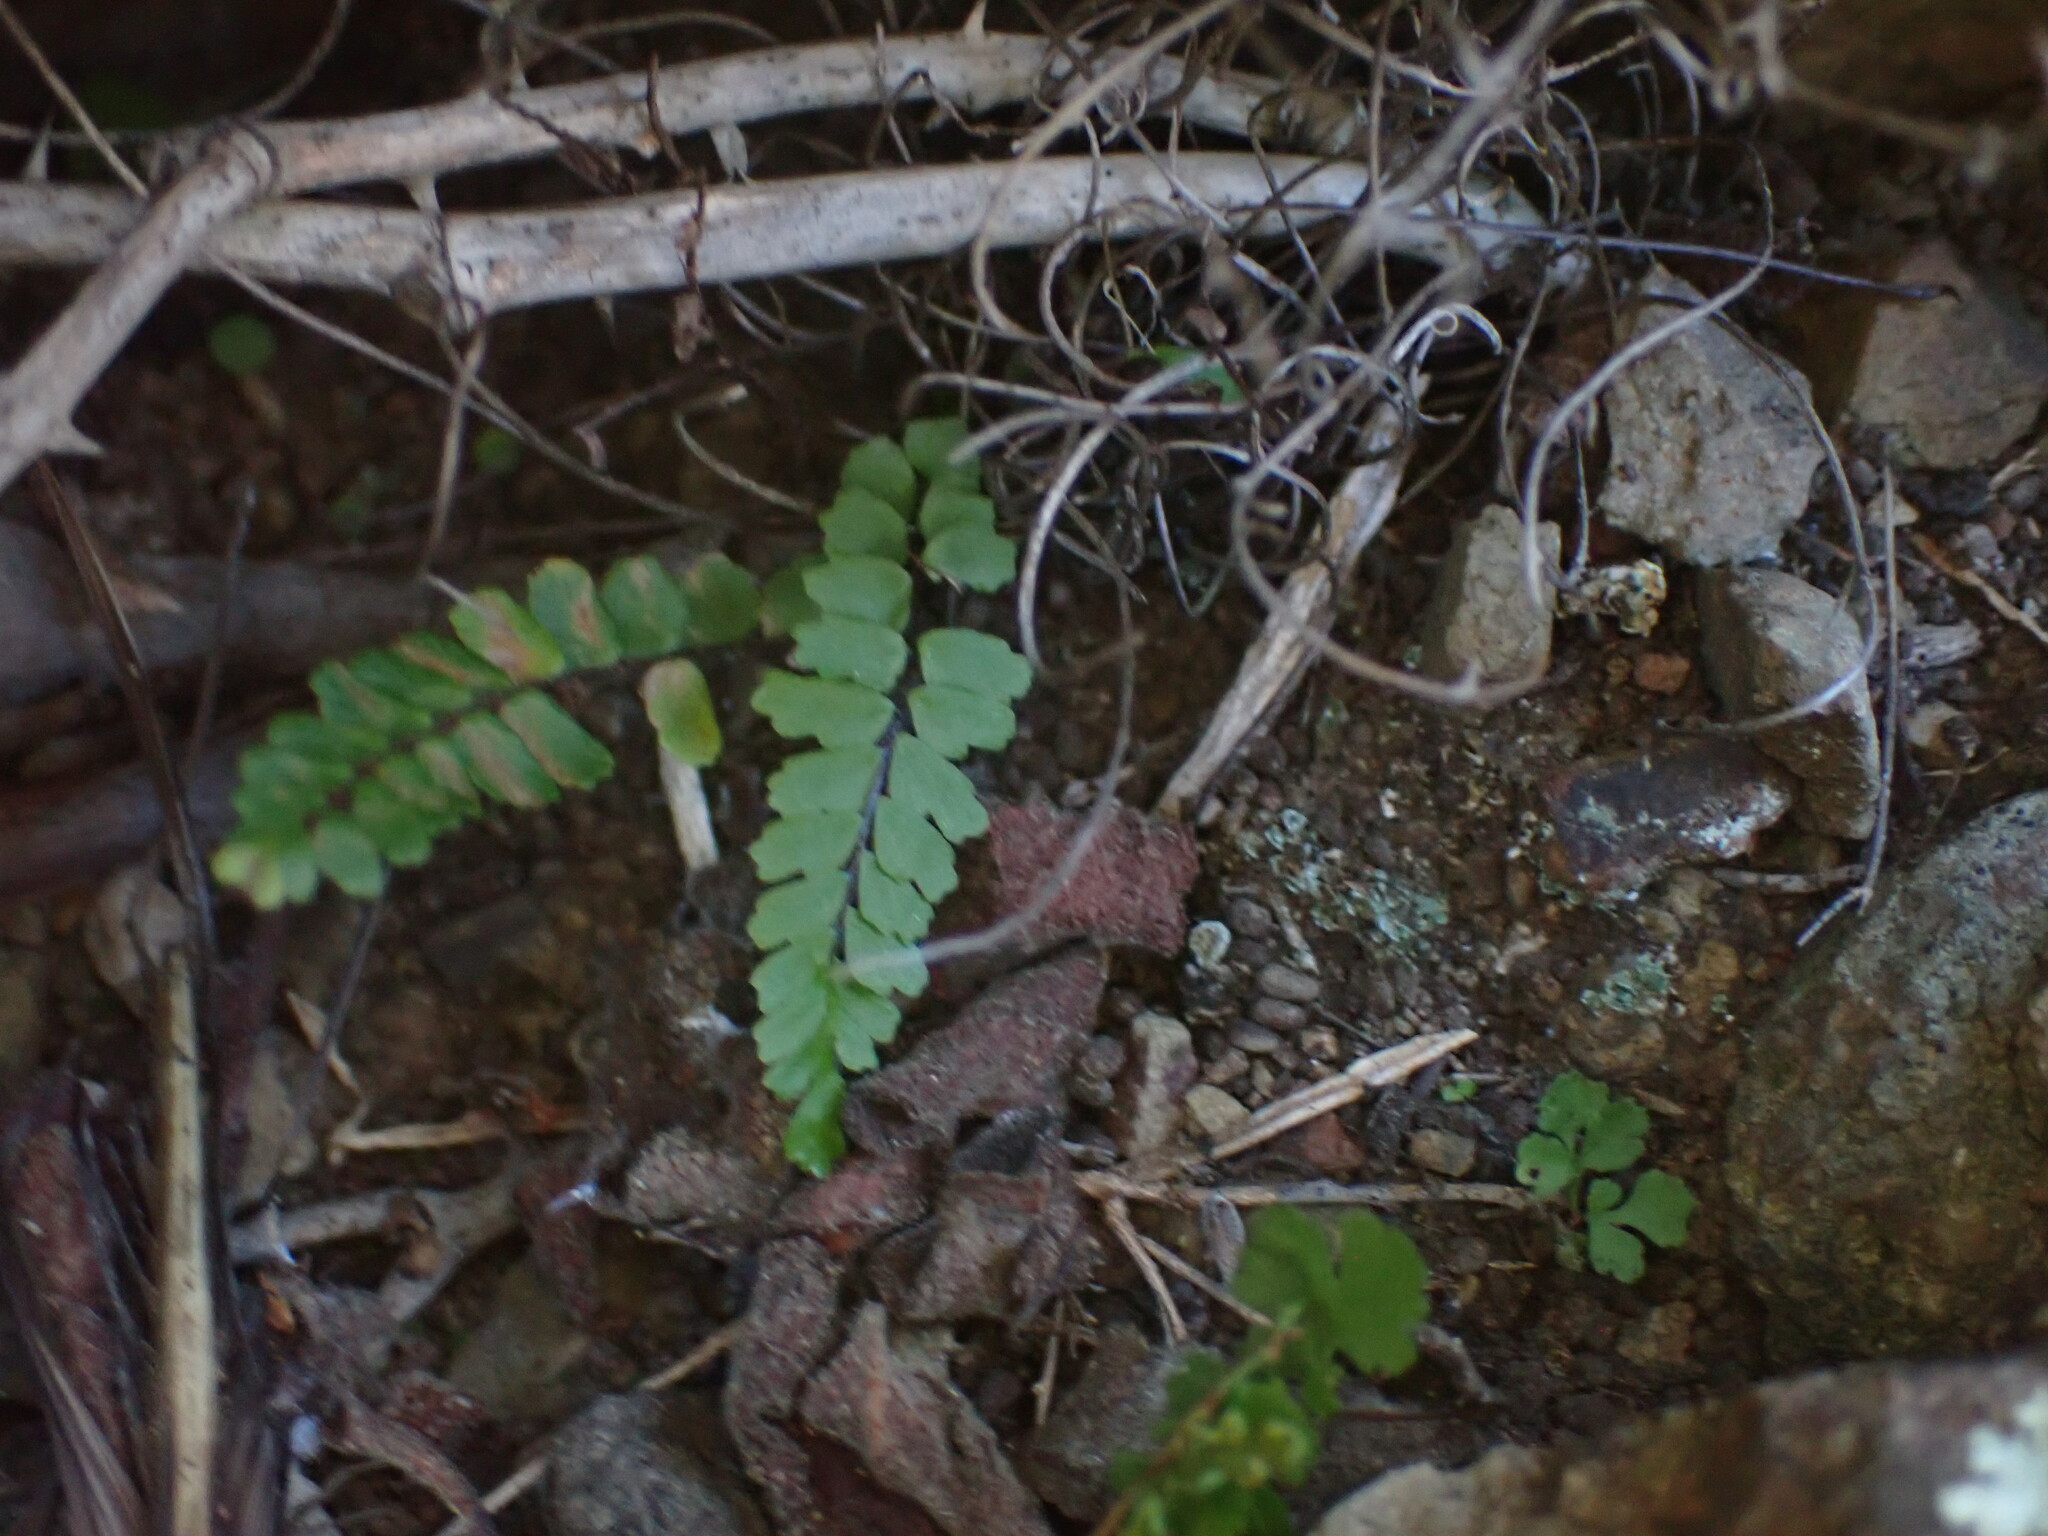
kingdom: Plantae
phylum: Tracheophyta
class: Polypodiopsida
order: Polypodiales
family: Aspleniaceae
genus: Asplenium
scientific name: Asplenium trichomanes
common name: Maidenhair spleenwort
